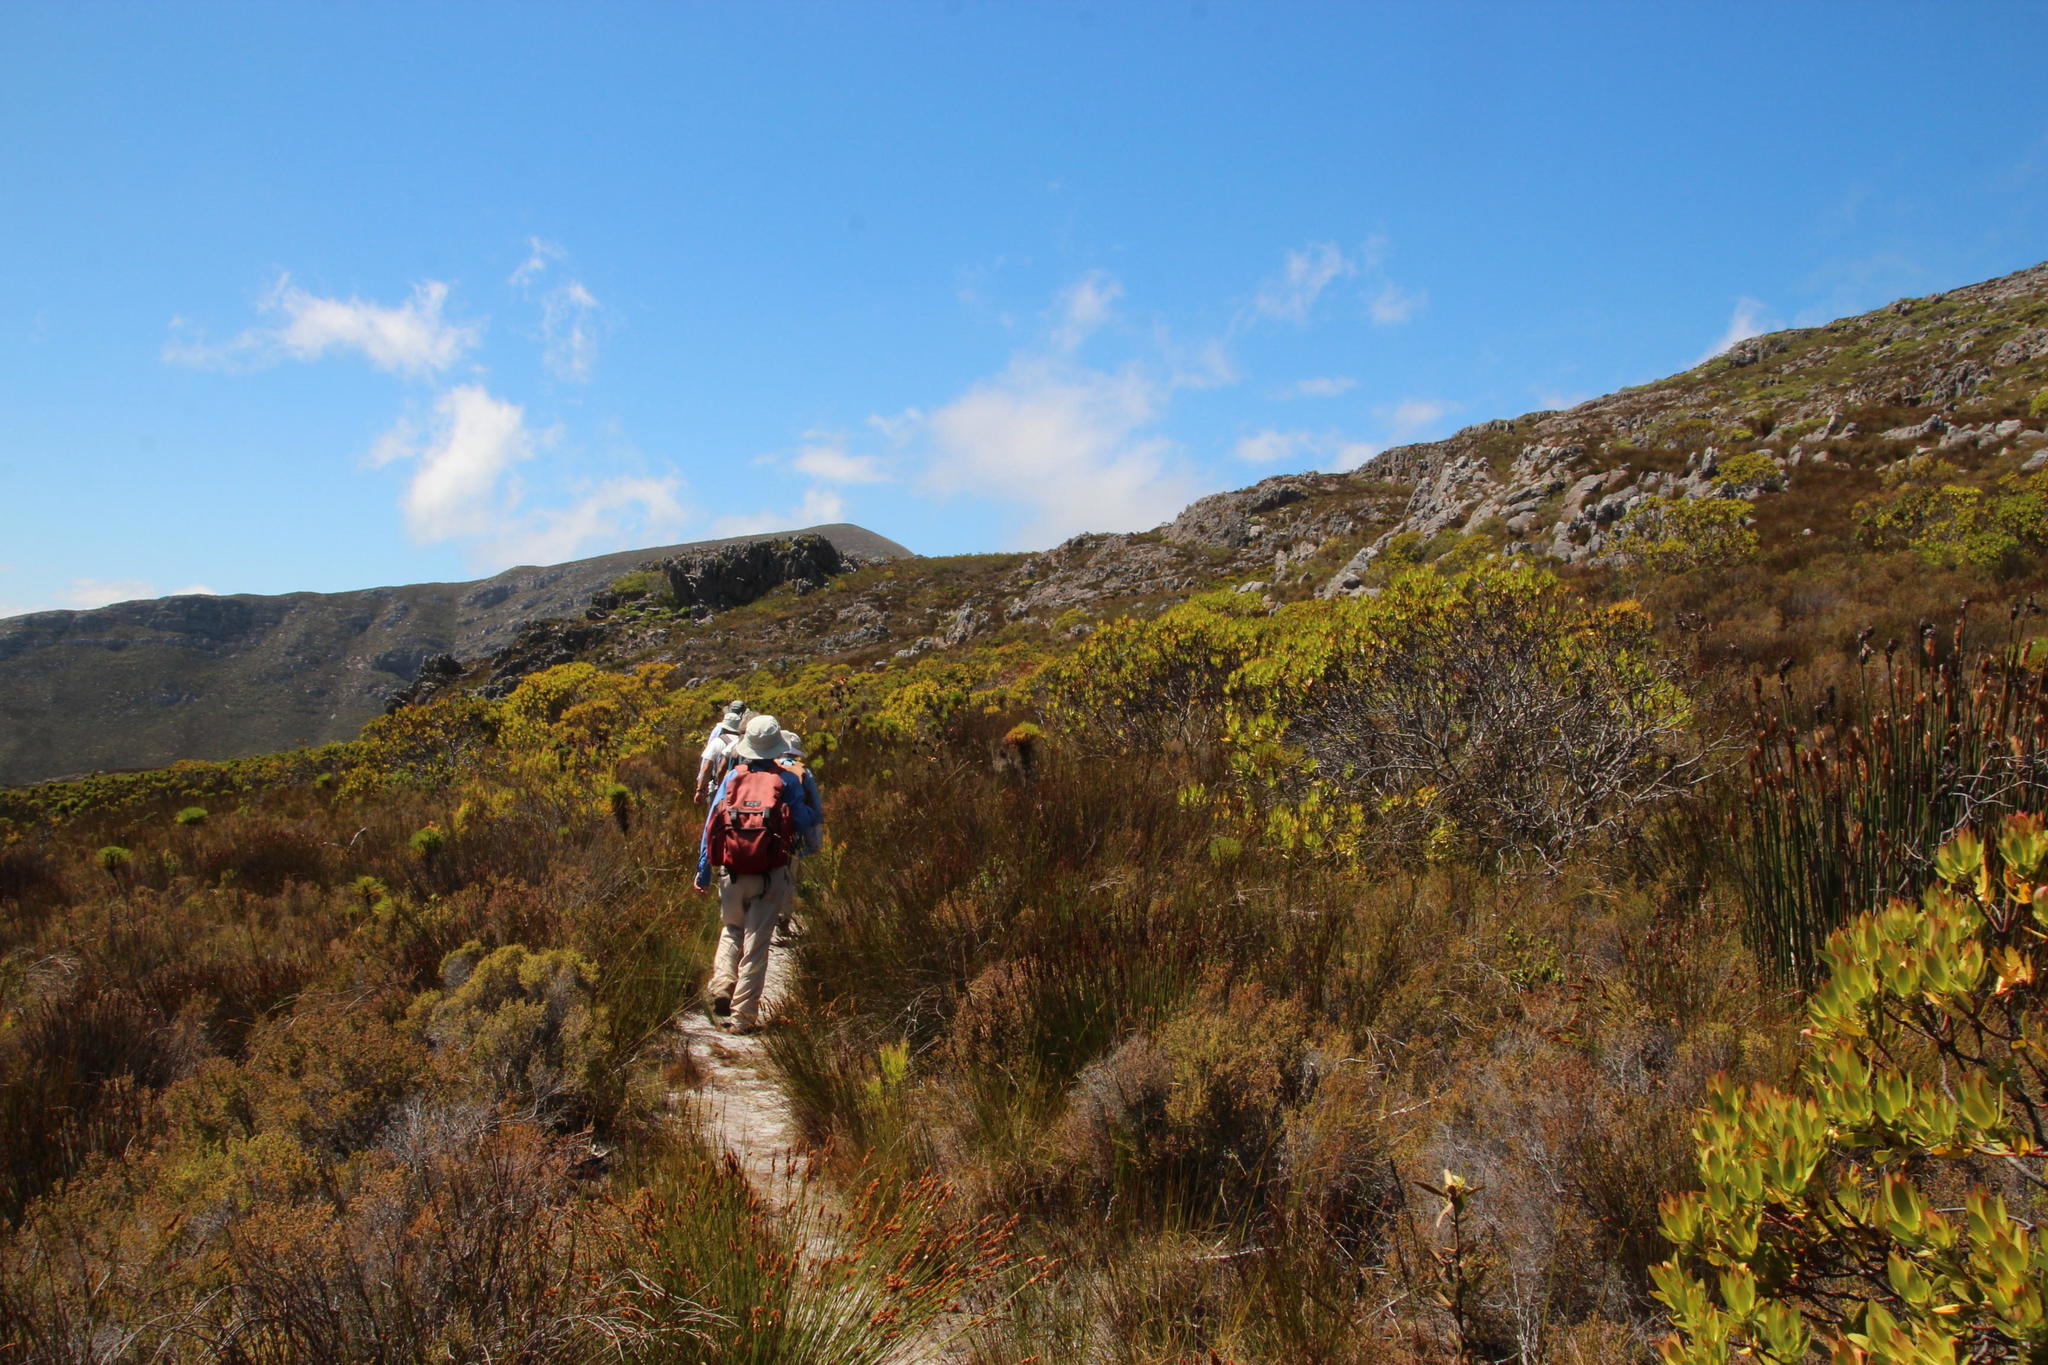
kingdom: Plantae
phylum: Tracheophyta
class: Magnoliopsida
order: Proteales
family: Proteaceae
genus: Leucadendron
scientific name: Leucadendron
